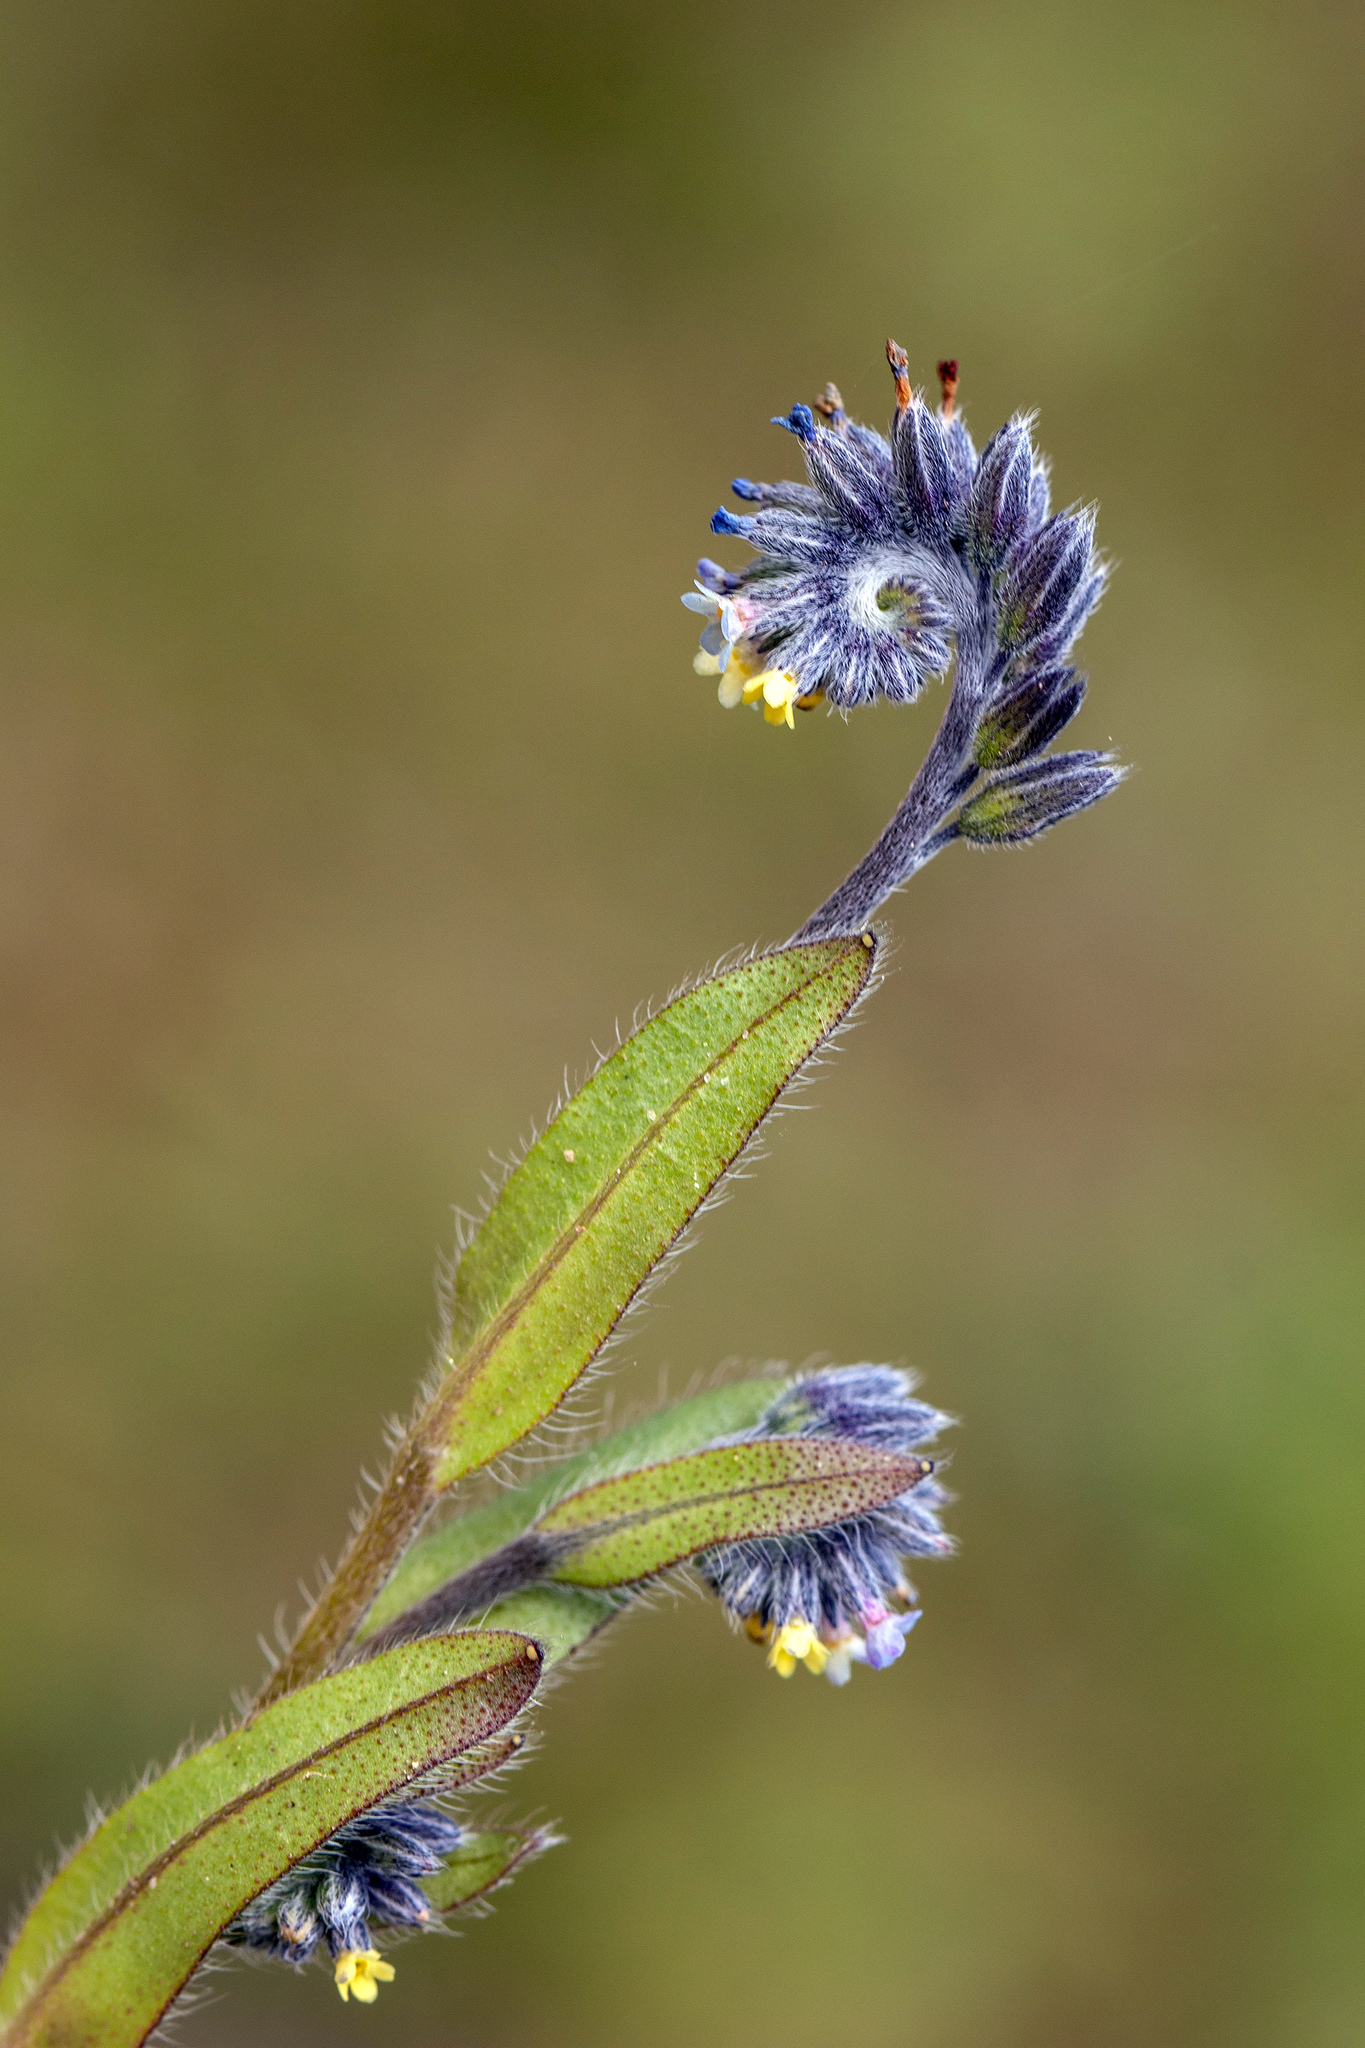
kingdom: Plantae
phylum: Tracheophyta
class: Magnoliopsida
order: Boraginales
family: Boraginaceae
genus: Myosotis
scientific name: Myosotis discolor
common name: Changing forget-me-not
